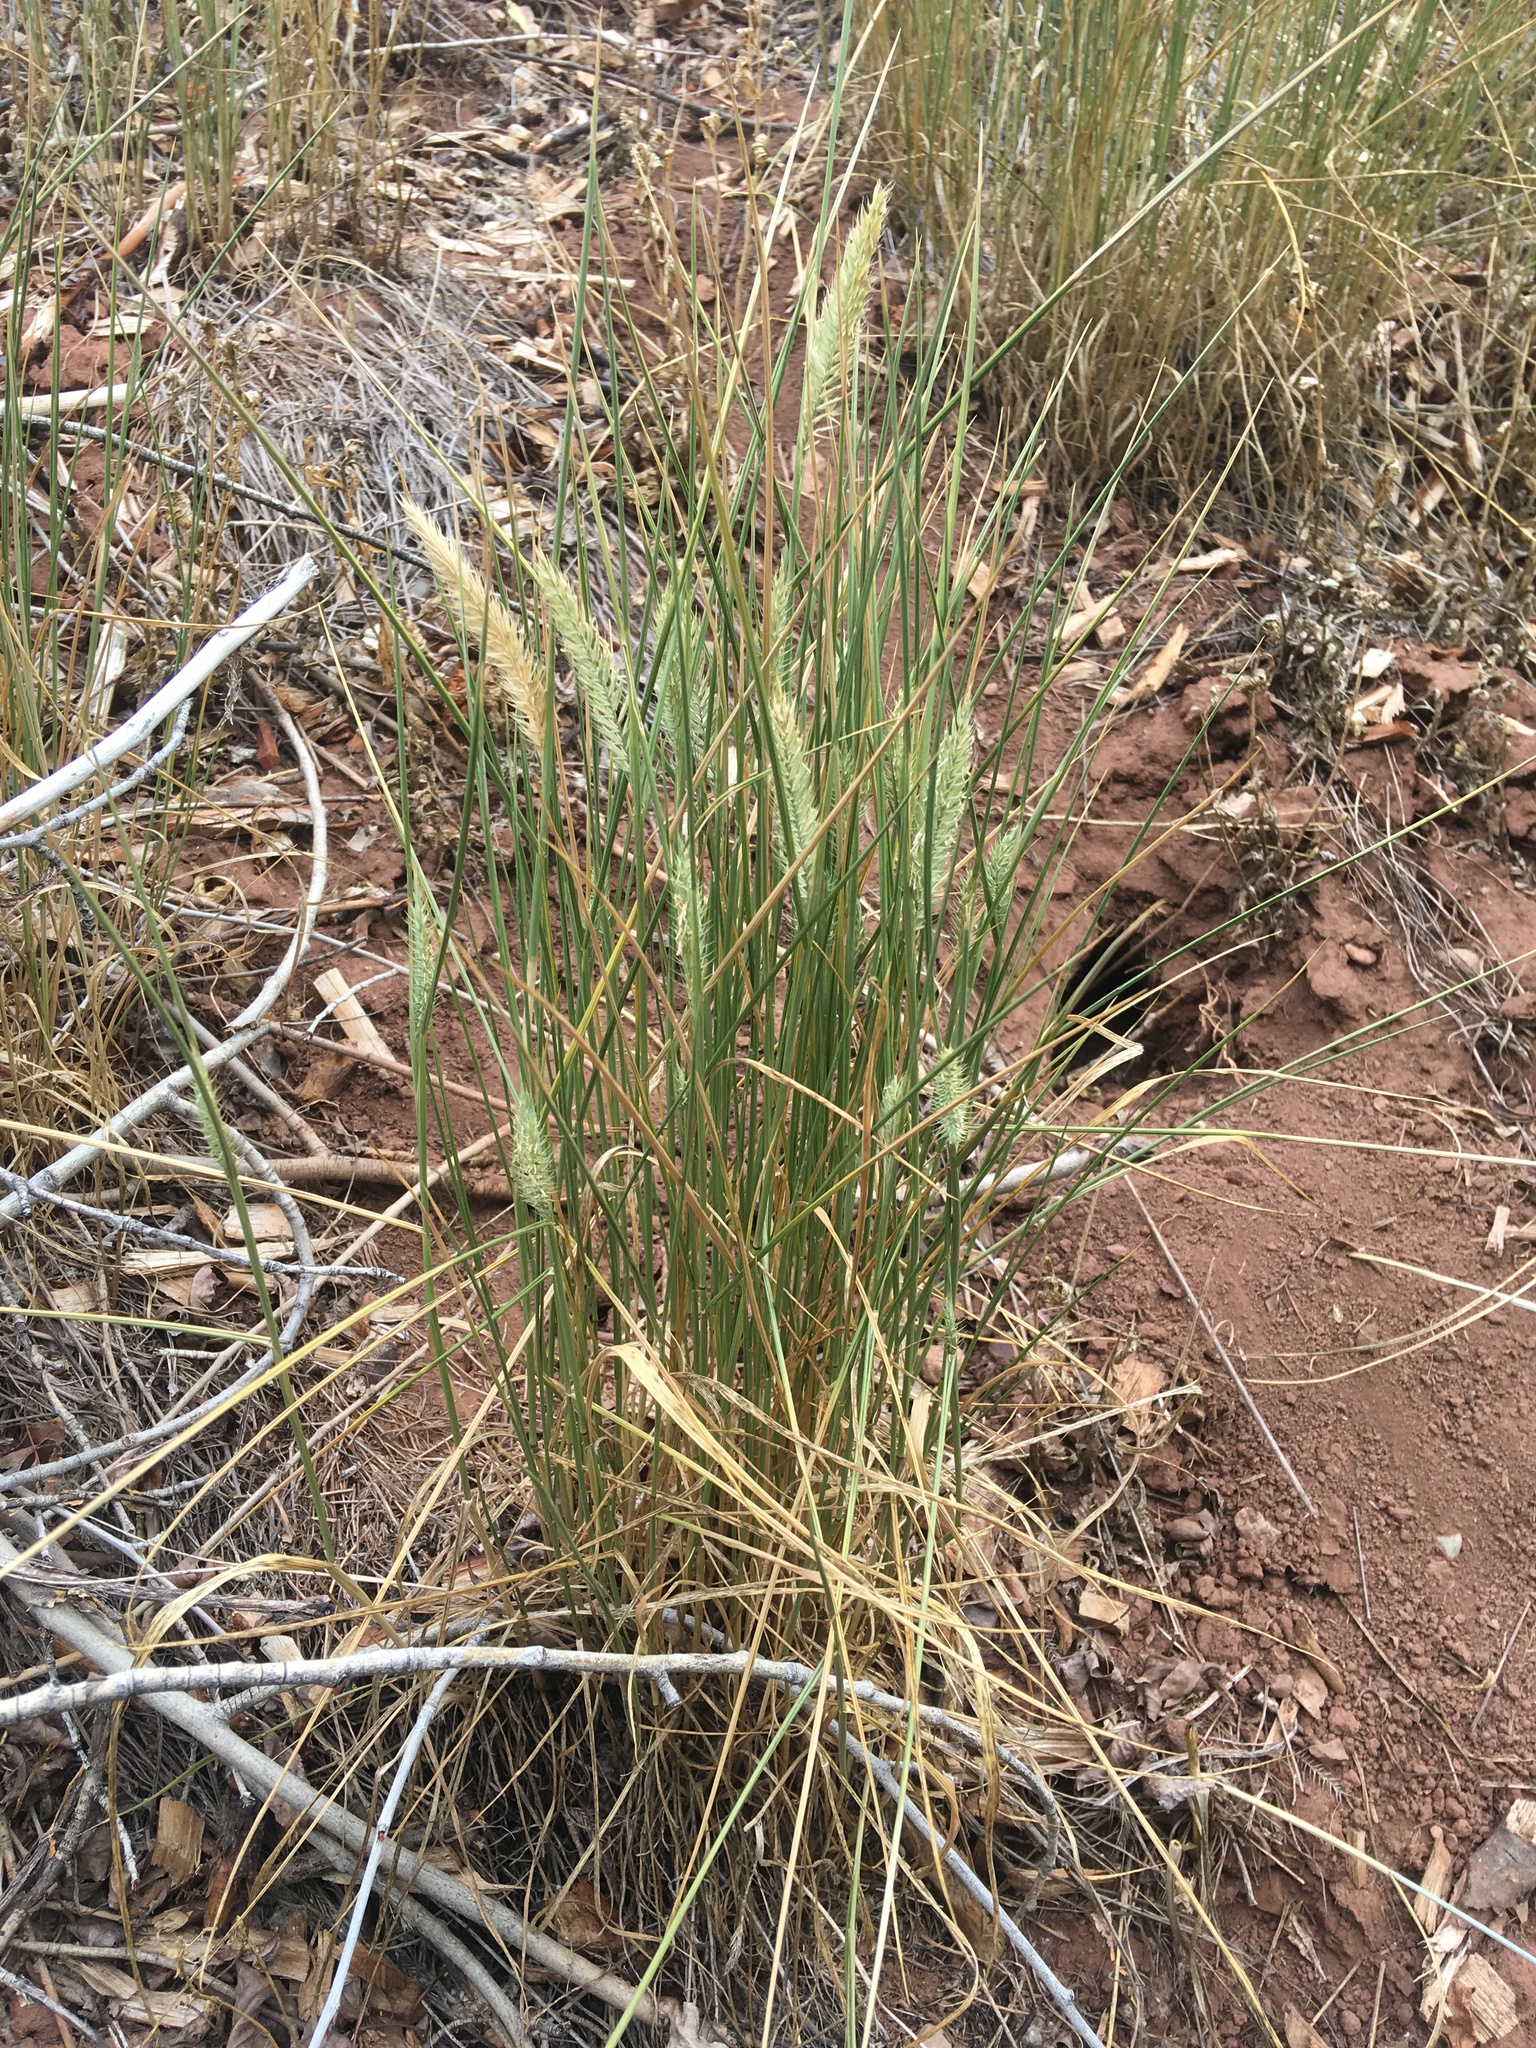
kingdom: Plantae
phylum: Tracheophyta
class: Liliopsida
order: Poales
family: Poaceae
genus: Agropyron
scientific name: Agropyron cristatum
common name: Crested wheatgrass
